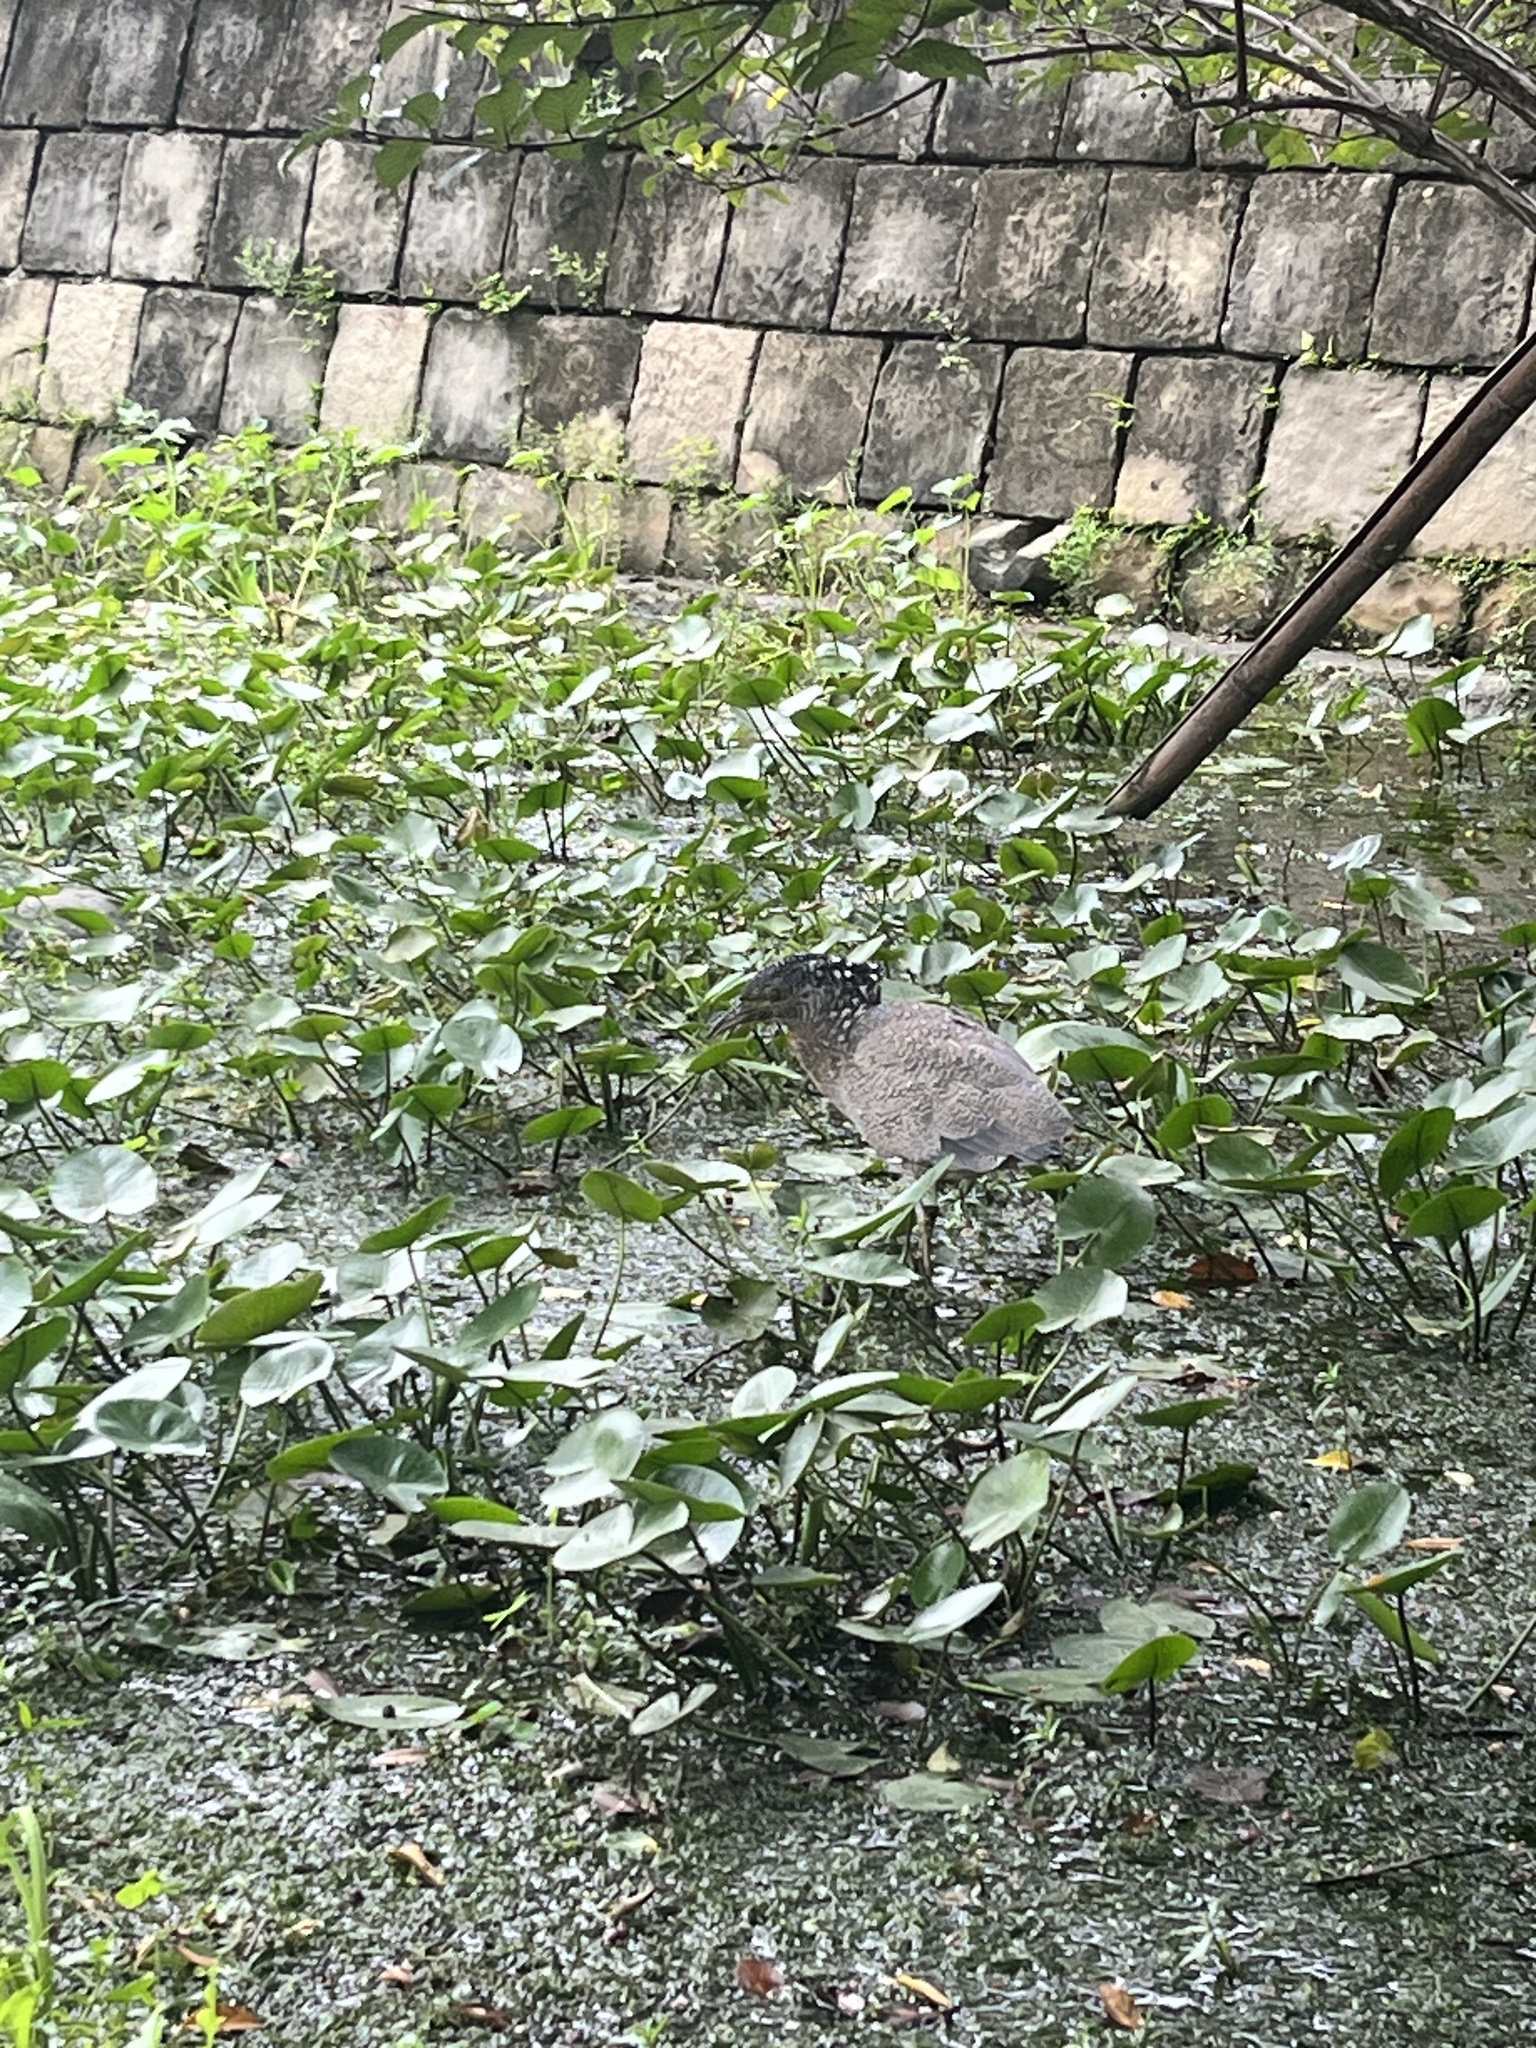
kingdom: Animalia
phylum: Chordata
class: Aves
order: Pelecaniformes
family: Ardeidae
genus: Gorsachius
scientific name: Gorsachius melanolophus
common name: Malayan night heron
